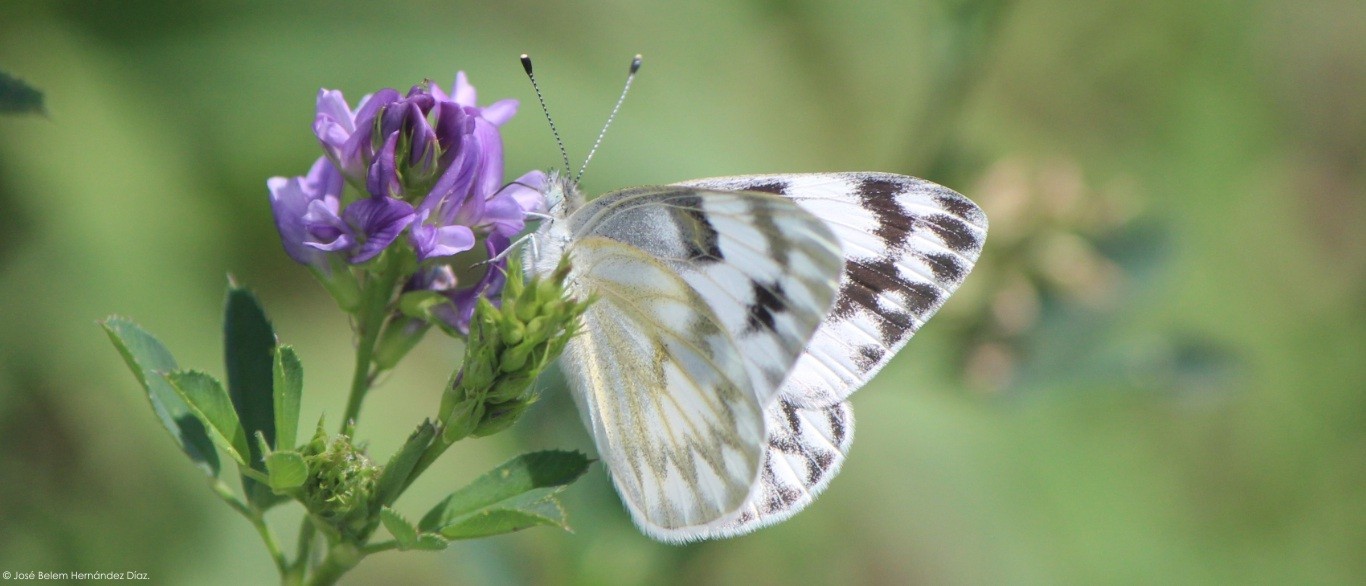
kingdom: Animalia
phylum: Arthropoda
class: Insecta
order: Lepidoptera
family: Pieridae
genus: Pontia
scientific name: Pontia protodice
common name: Checkered white
